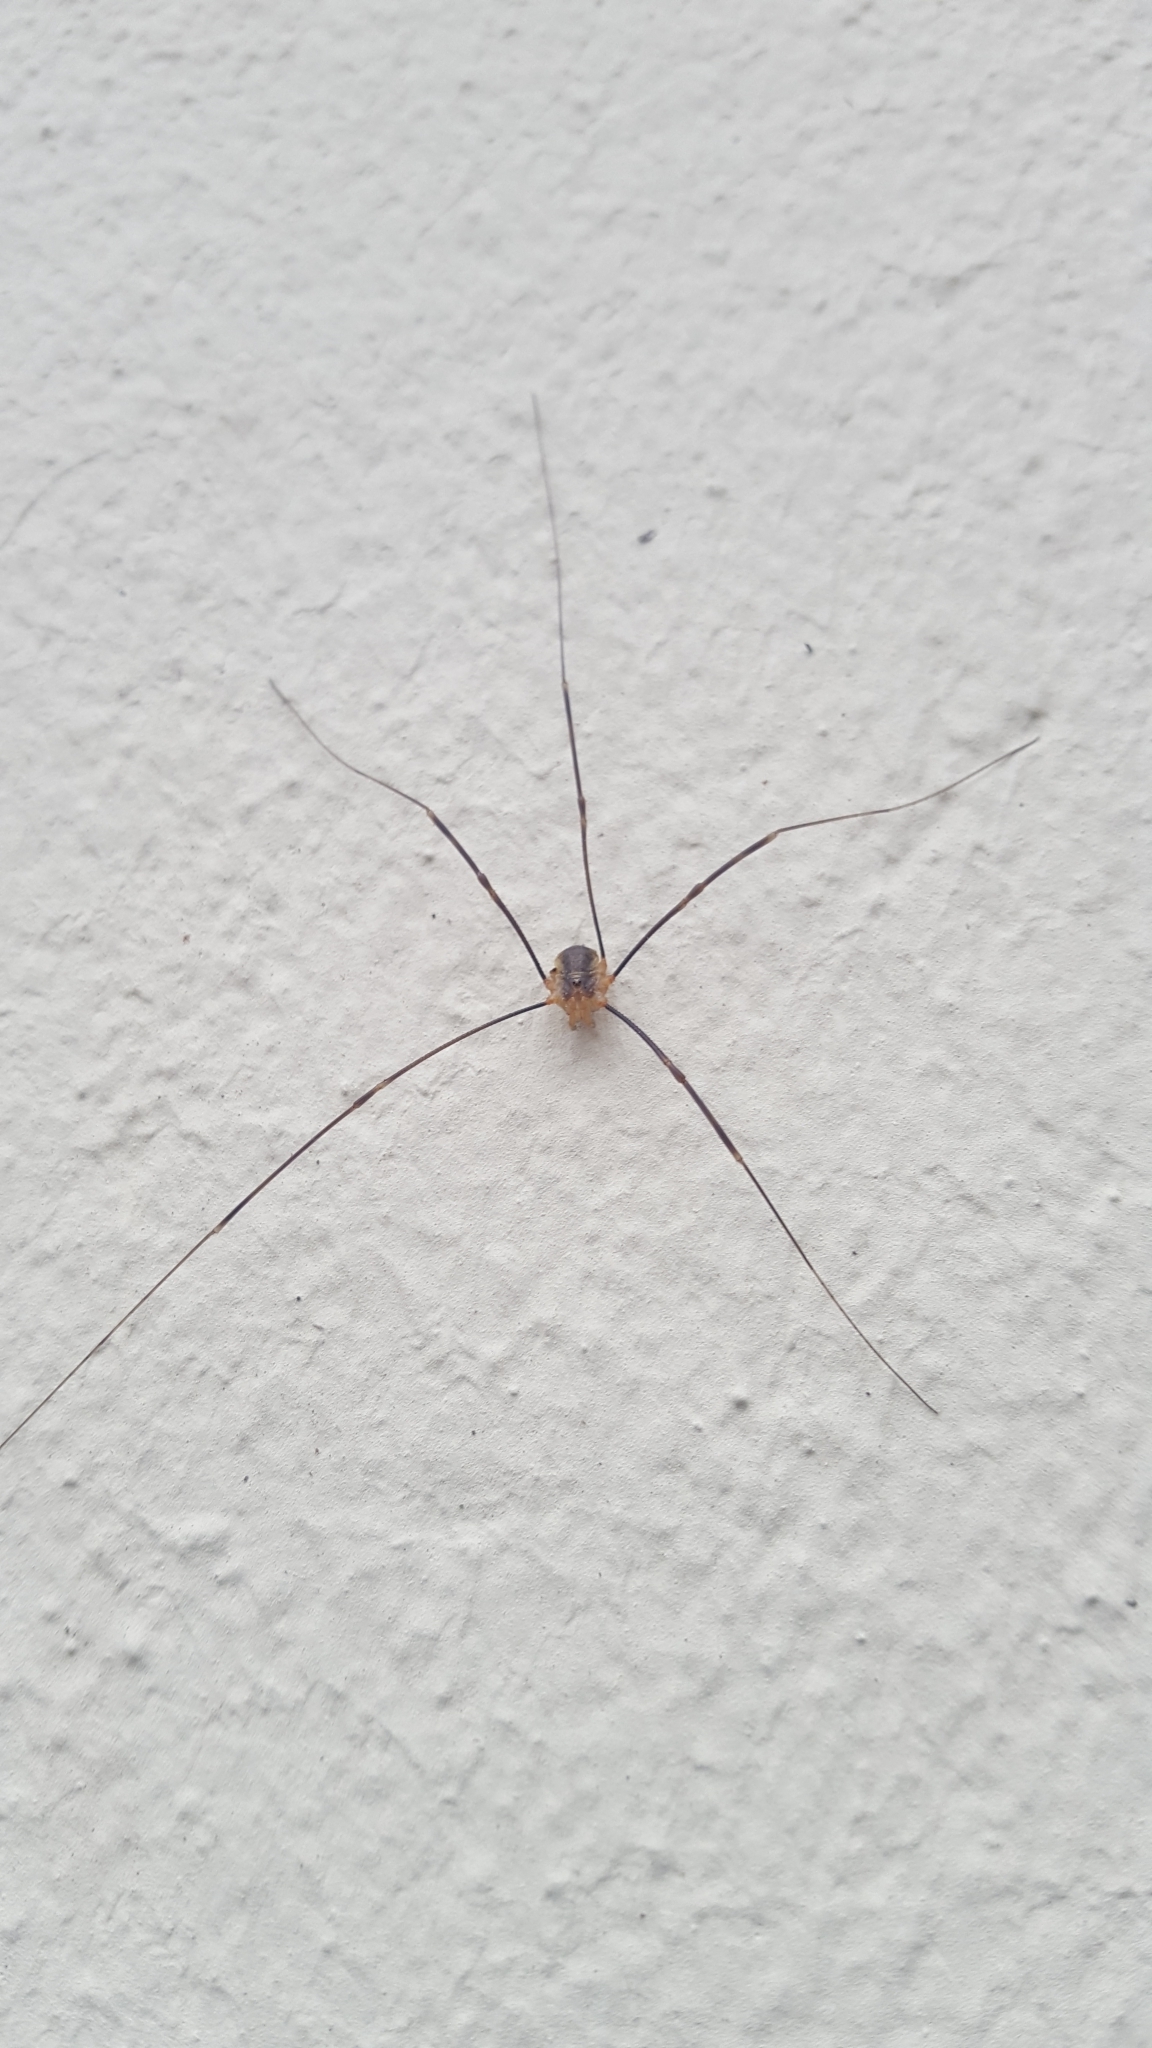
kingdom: Animalia
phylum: Arthropoda
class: Arachnida
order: Opiliones
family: Phalangiidae
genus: Opilio
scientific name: Opilio canestrinii
